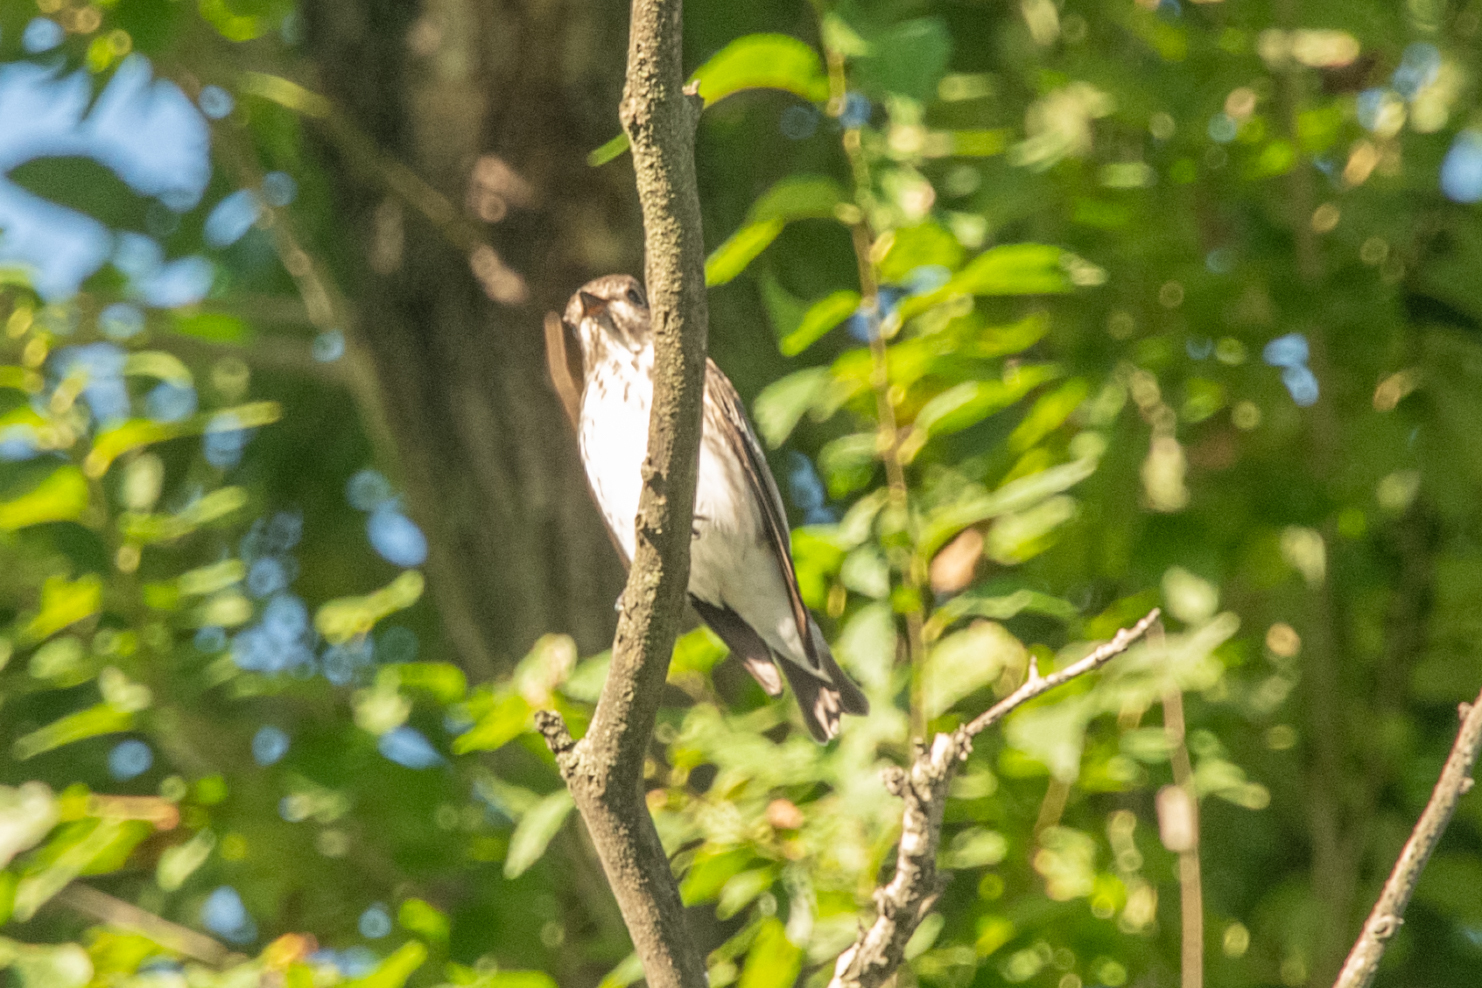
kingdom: Animalia
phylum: Chordata
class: Aves
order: Passeriformes
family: Muscicapidae
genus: Muscicapa
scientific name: Muscicapa latirostris
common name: Asian brown flycatcher
